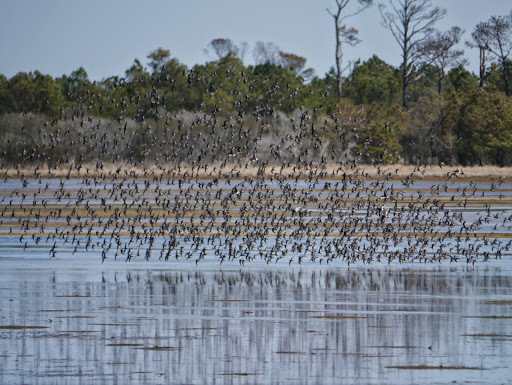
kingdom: Animalia
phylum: Chordata
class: Aves
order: Charadriiformes
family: Scolopacidae
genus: Calidris
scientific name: Calidris alpina
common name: Dunlin
